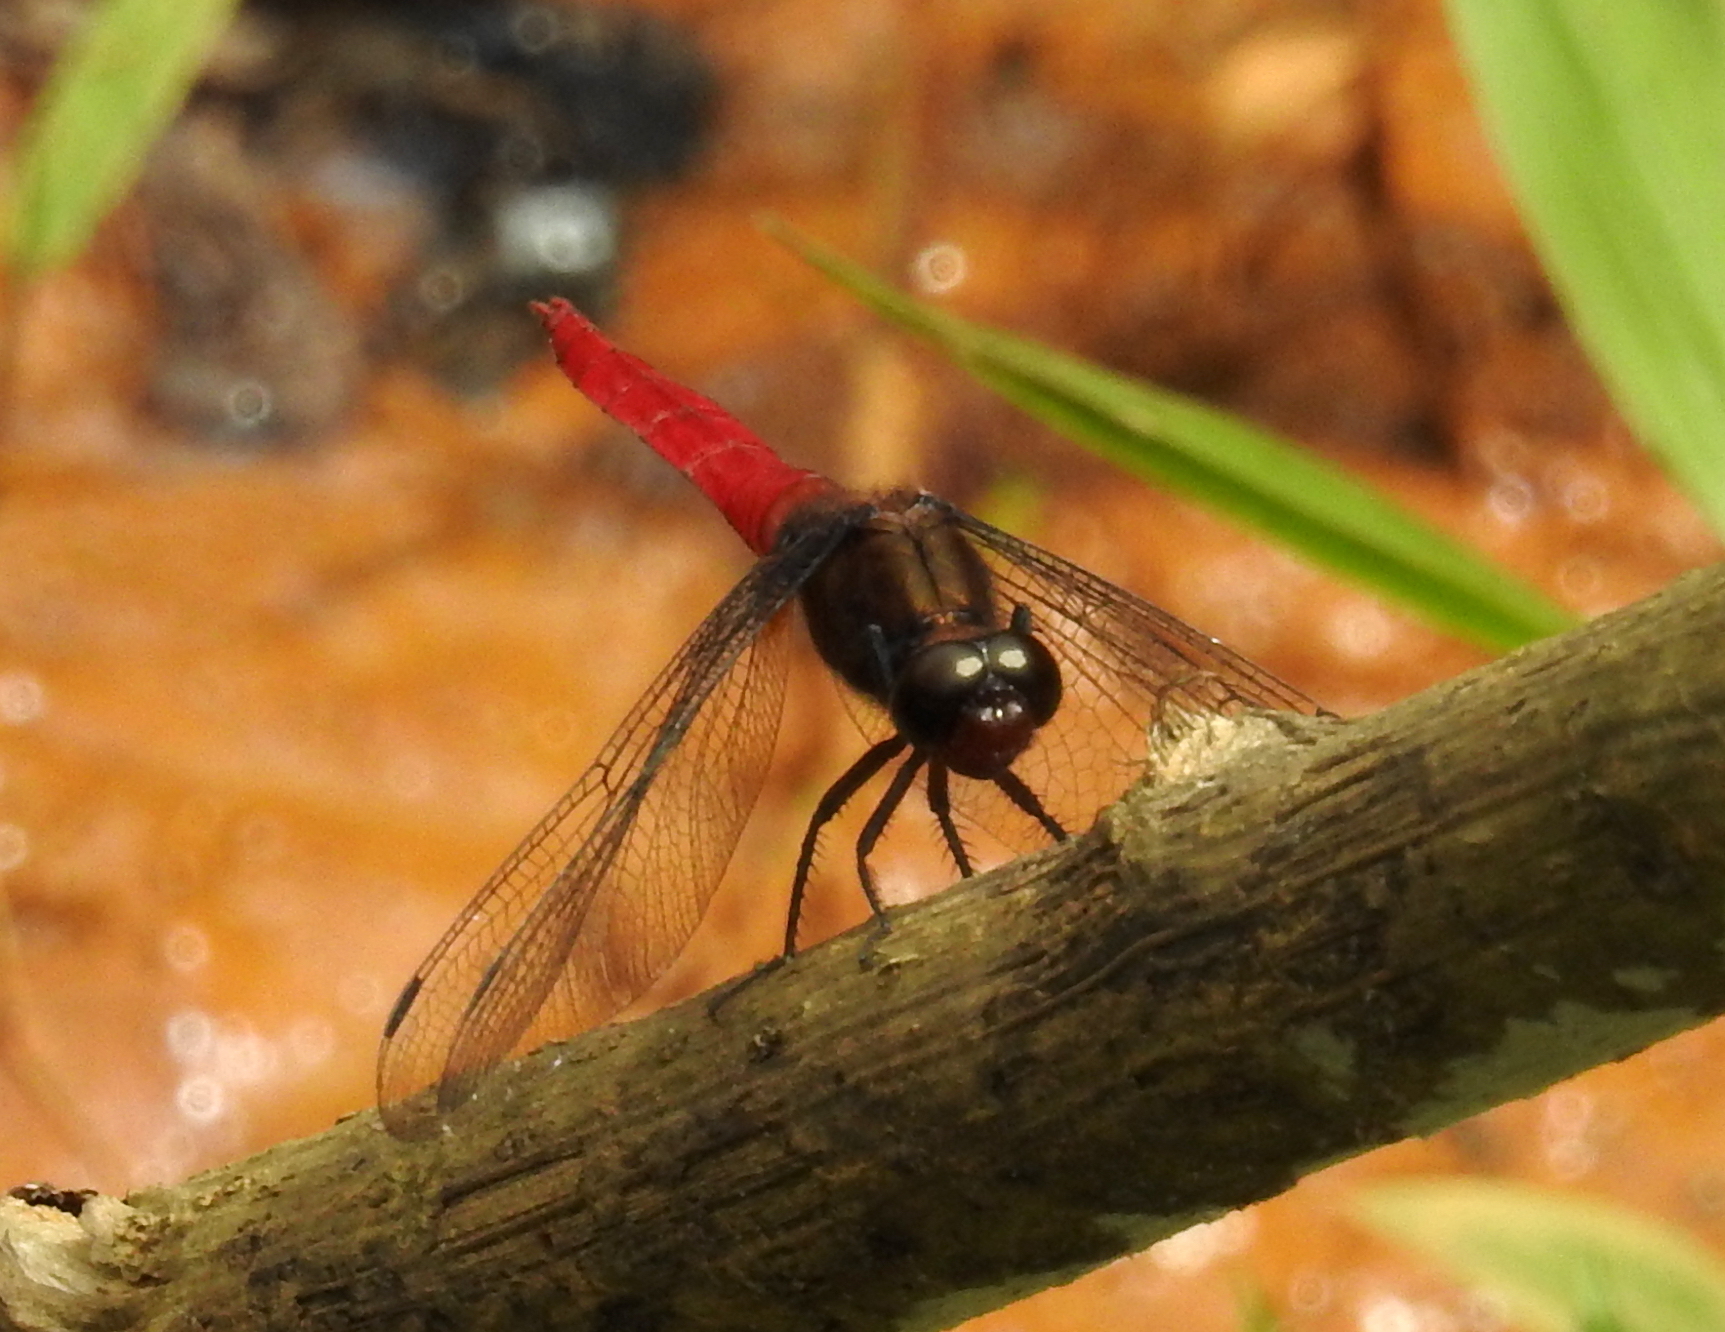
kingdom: Animalia
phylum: Arthropoda
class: Insecta
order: Odonata
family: Libellulidae
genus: Orthetrum
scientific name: Orthetrum chrysis
